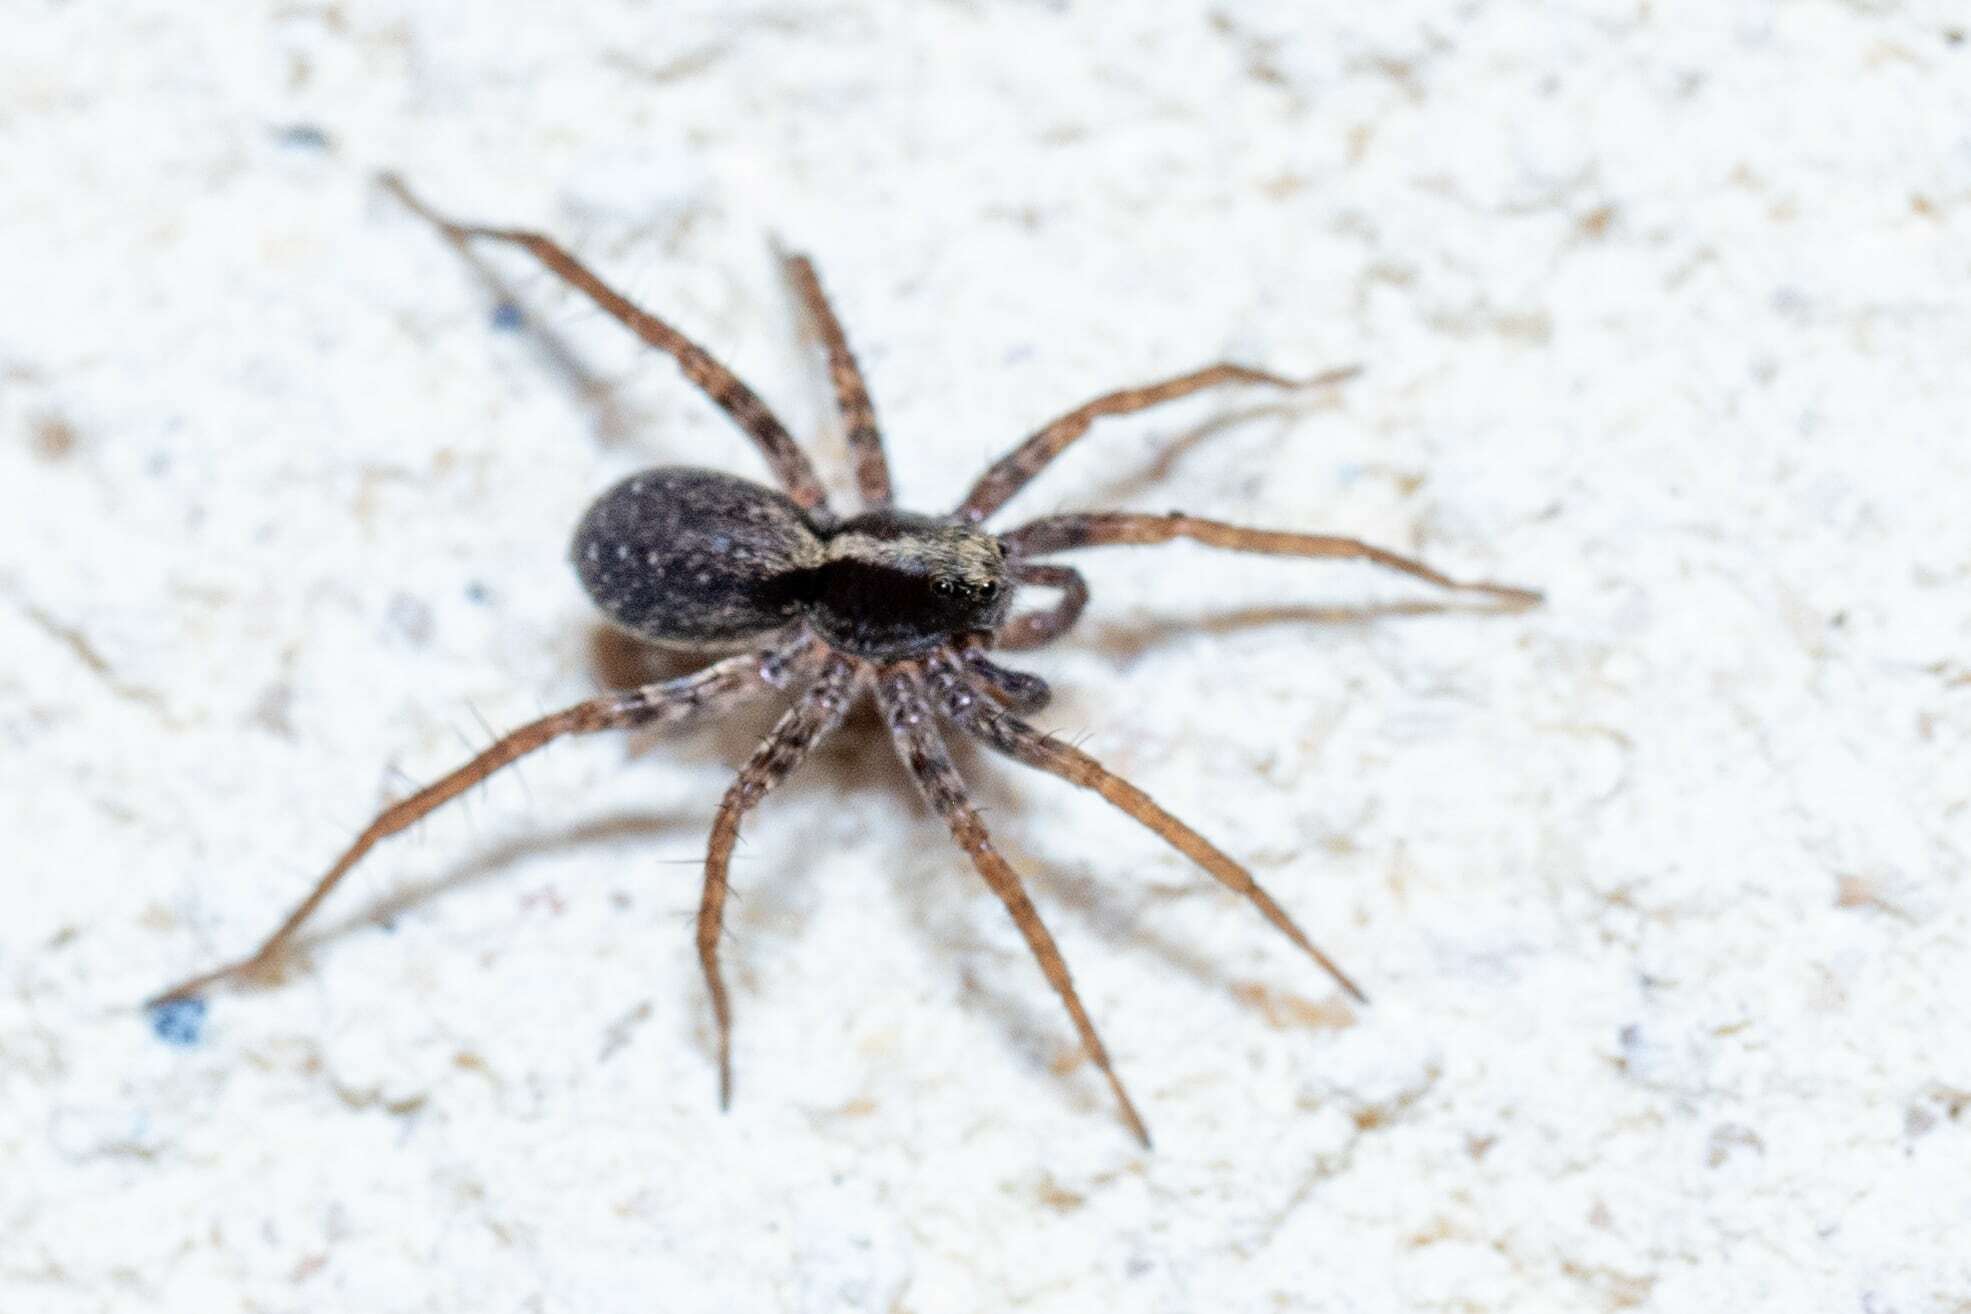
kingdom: Animalia
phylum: Arthropoda
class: Arachnida
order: Araneae
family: Lycosidae
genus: Pardosa
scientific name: Pardosa
